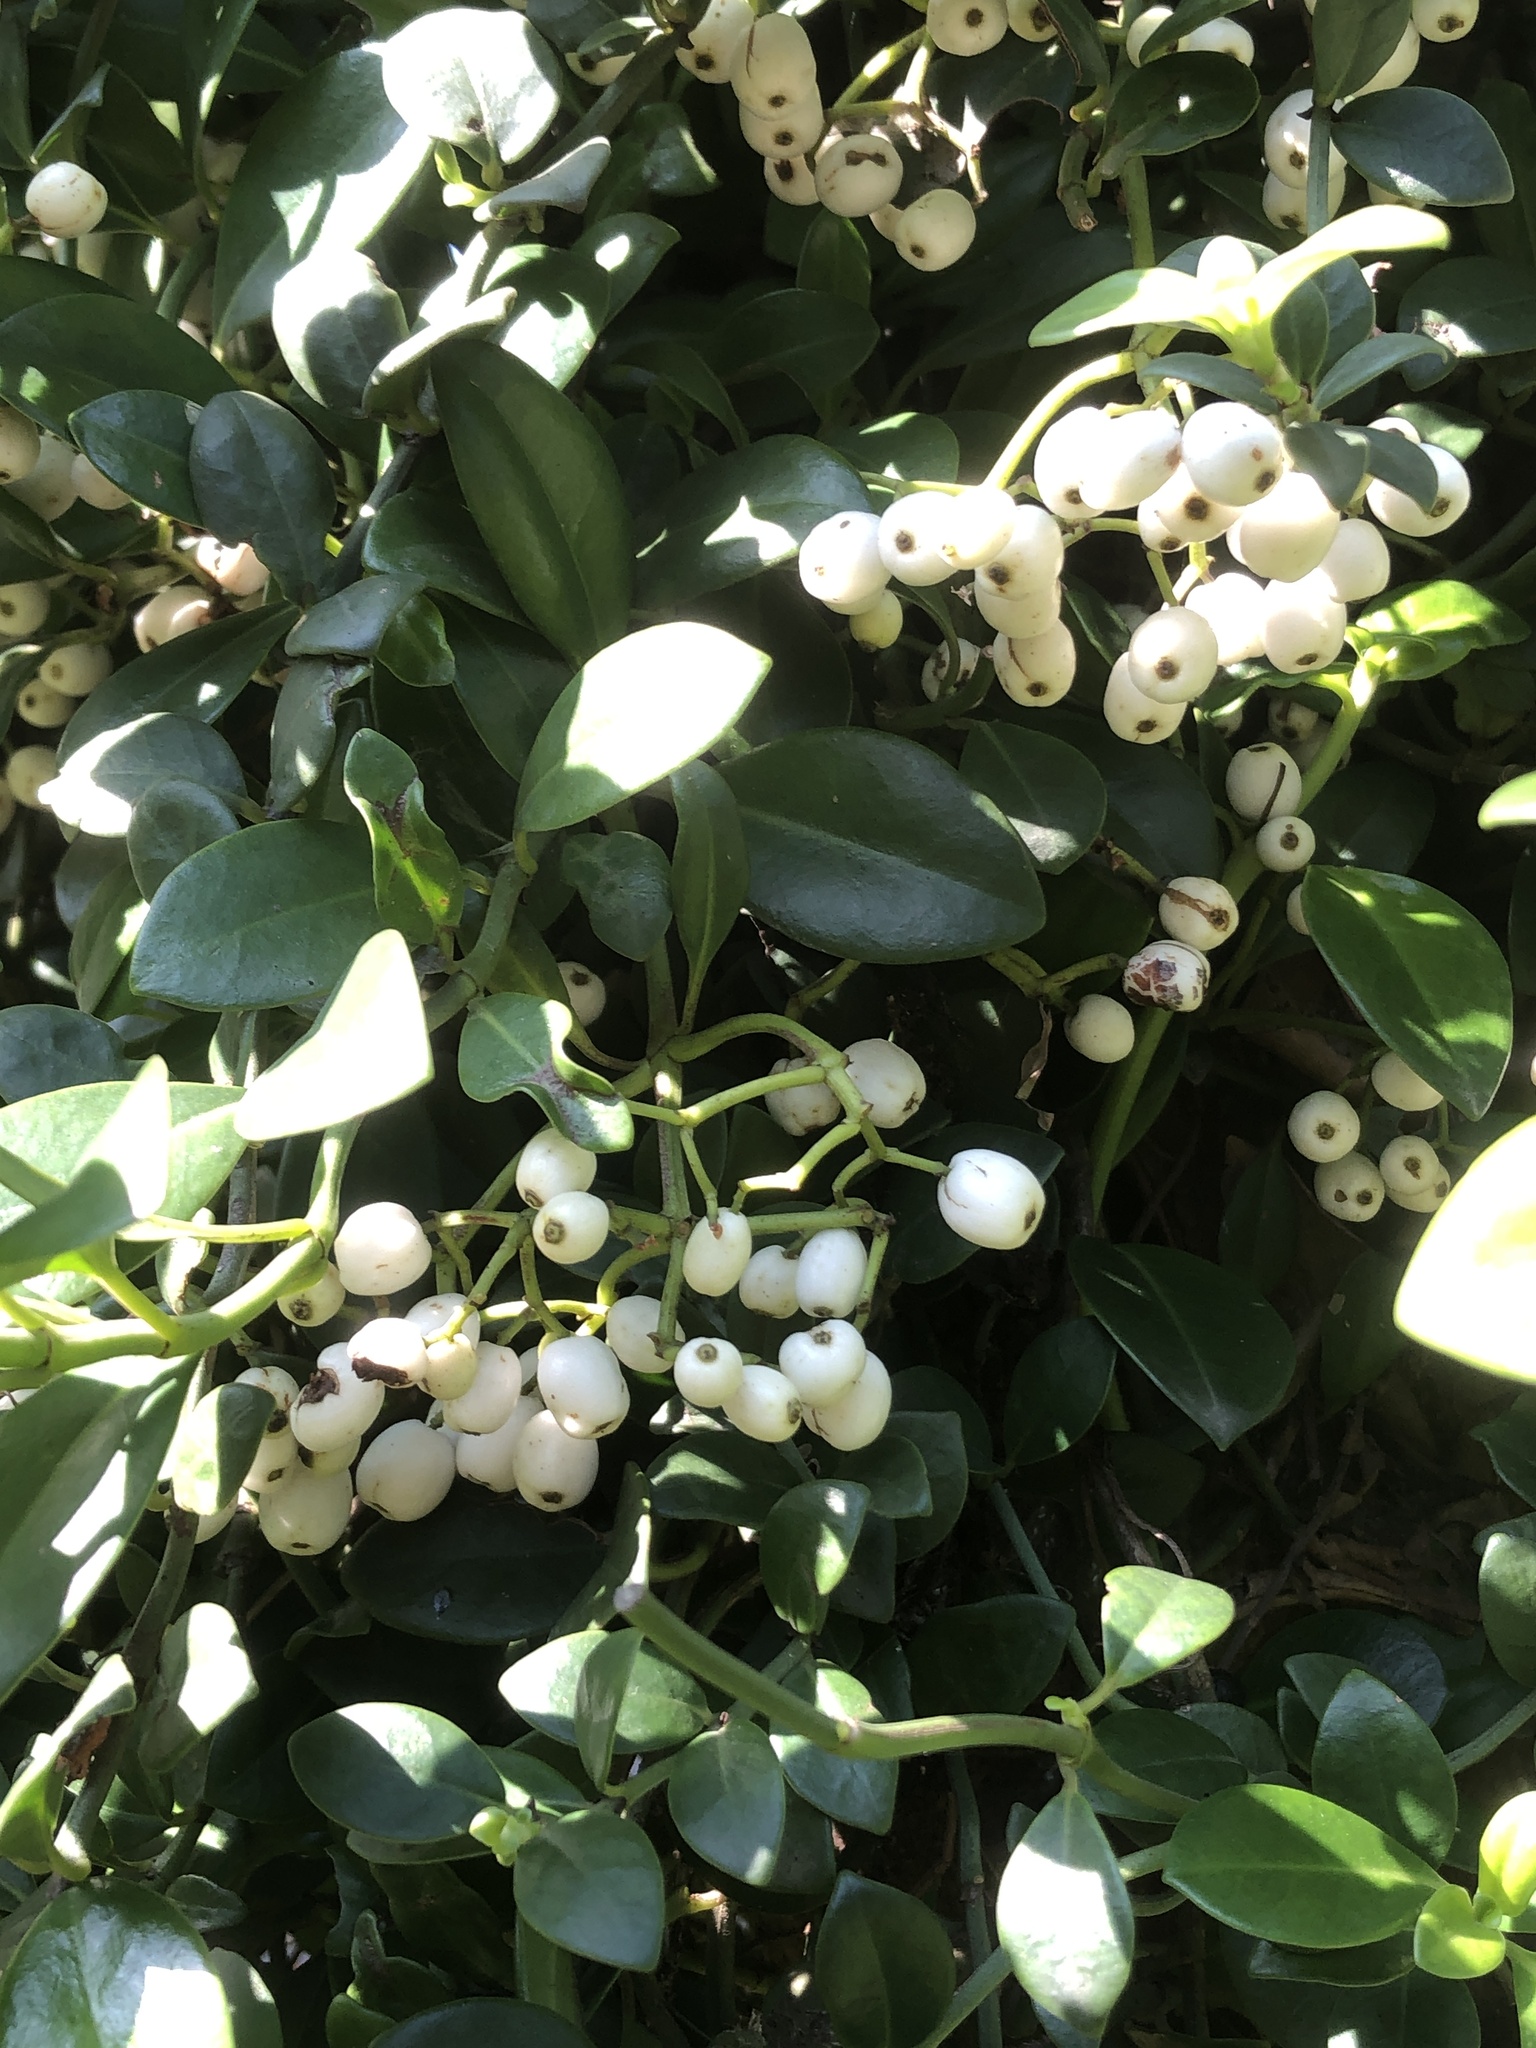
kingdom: Plantae
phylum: Tracheophyta
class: Magnoliopsida
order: Gentianales
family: Rubiaceae
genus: Psychotria
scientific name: Psychotria serpens
